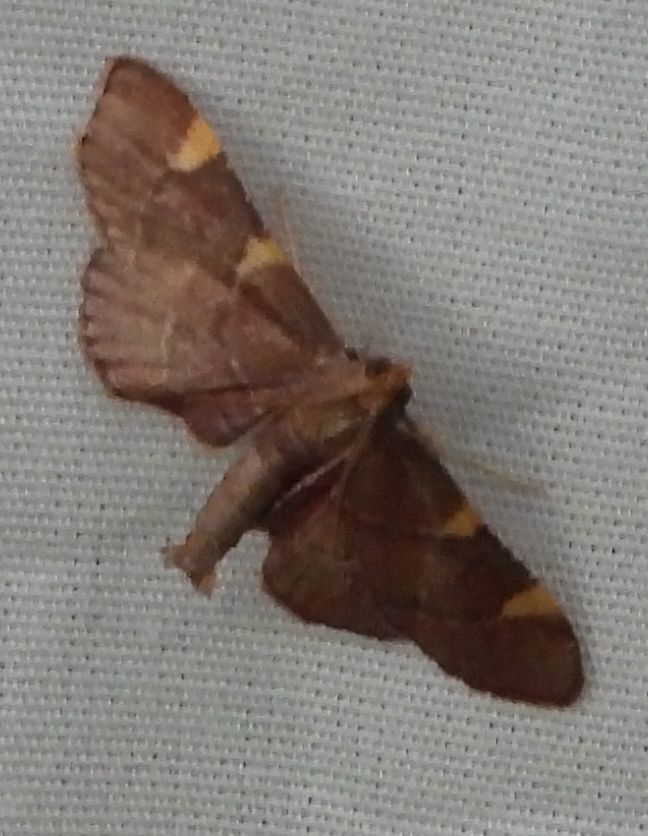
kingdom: Animalia
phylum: Arthropoda
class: Insecta
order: Lepidoptera
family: Pyralidae
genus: Hypsopygia
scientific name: Hypsopygia olinalis
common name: Yellow-fringed dolichomia moth
